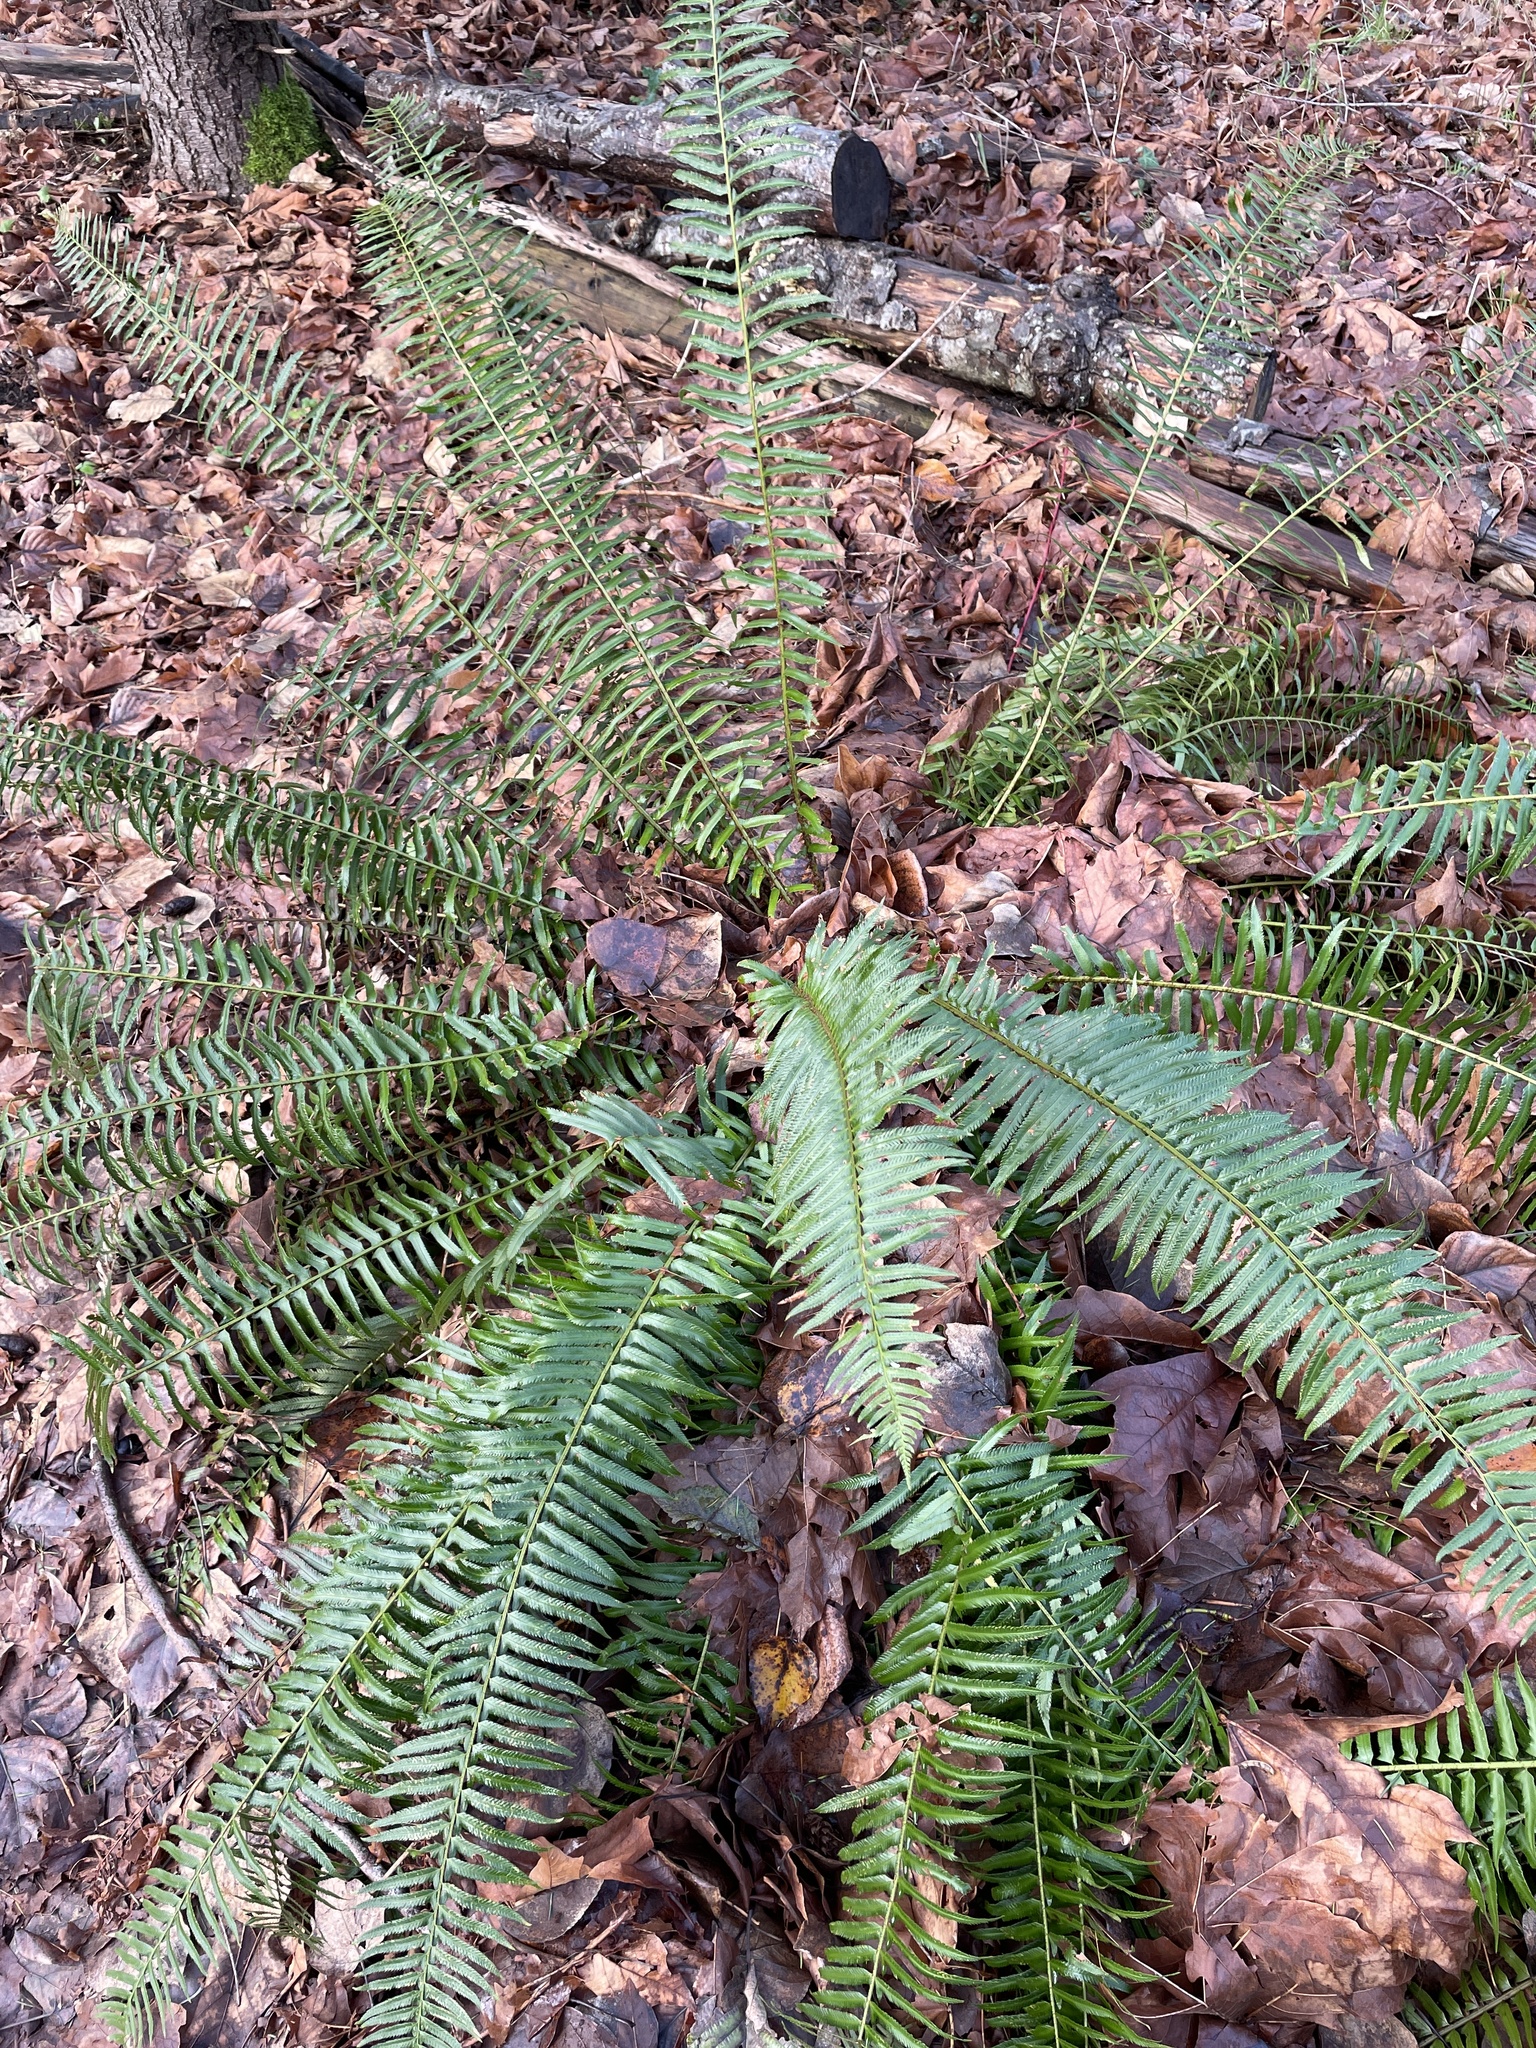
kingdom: Plantae
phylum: Tracheophyta
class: Polypodiopsida
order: Polypodiales
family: Dryopteridaceae
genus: Polystichum
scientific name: Polystichum munitum
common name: Western sword-fern
